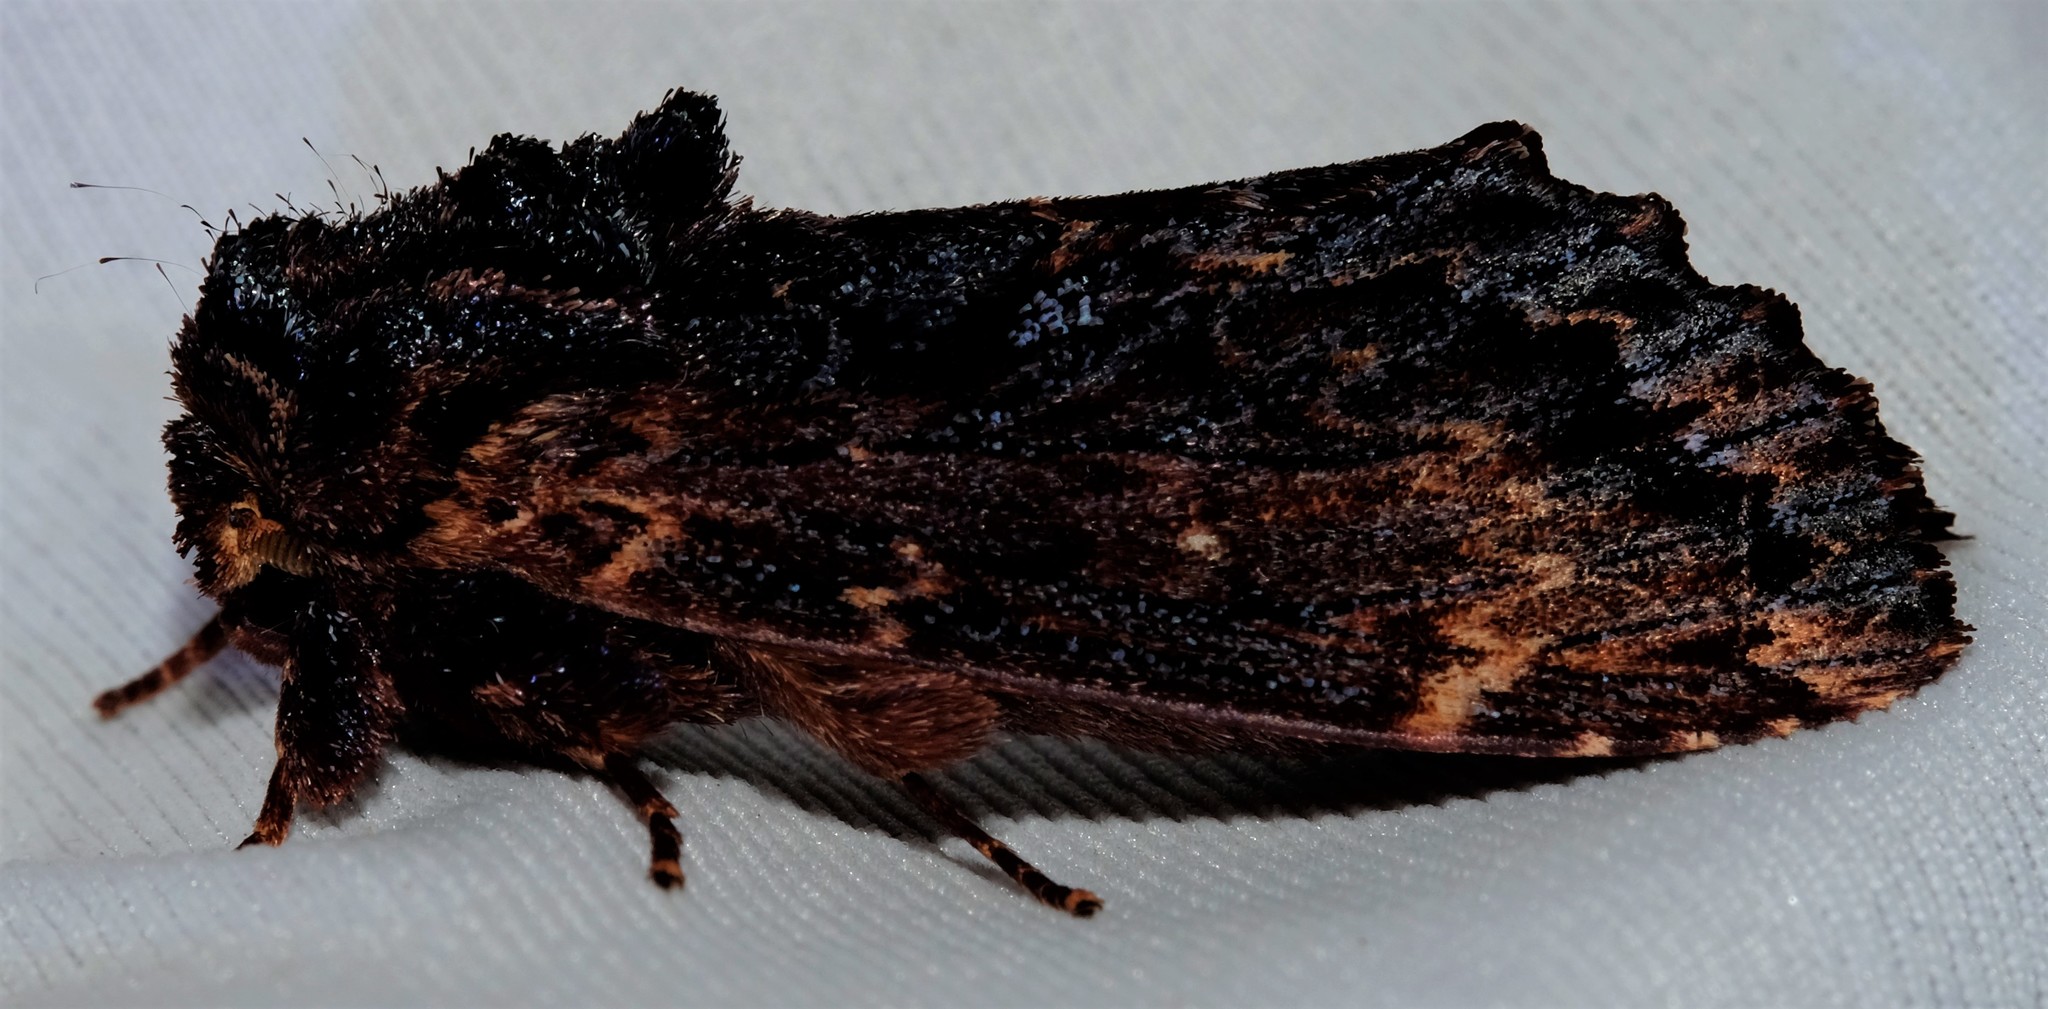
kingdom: Animalia
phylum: Arthropoda
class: Insecta
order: Lepidoptera
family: Notodontidae
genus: Sorama
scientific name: Sorama bicolor
